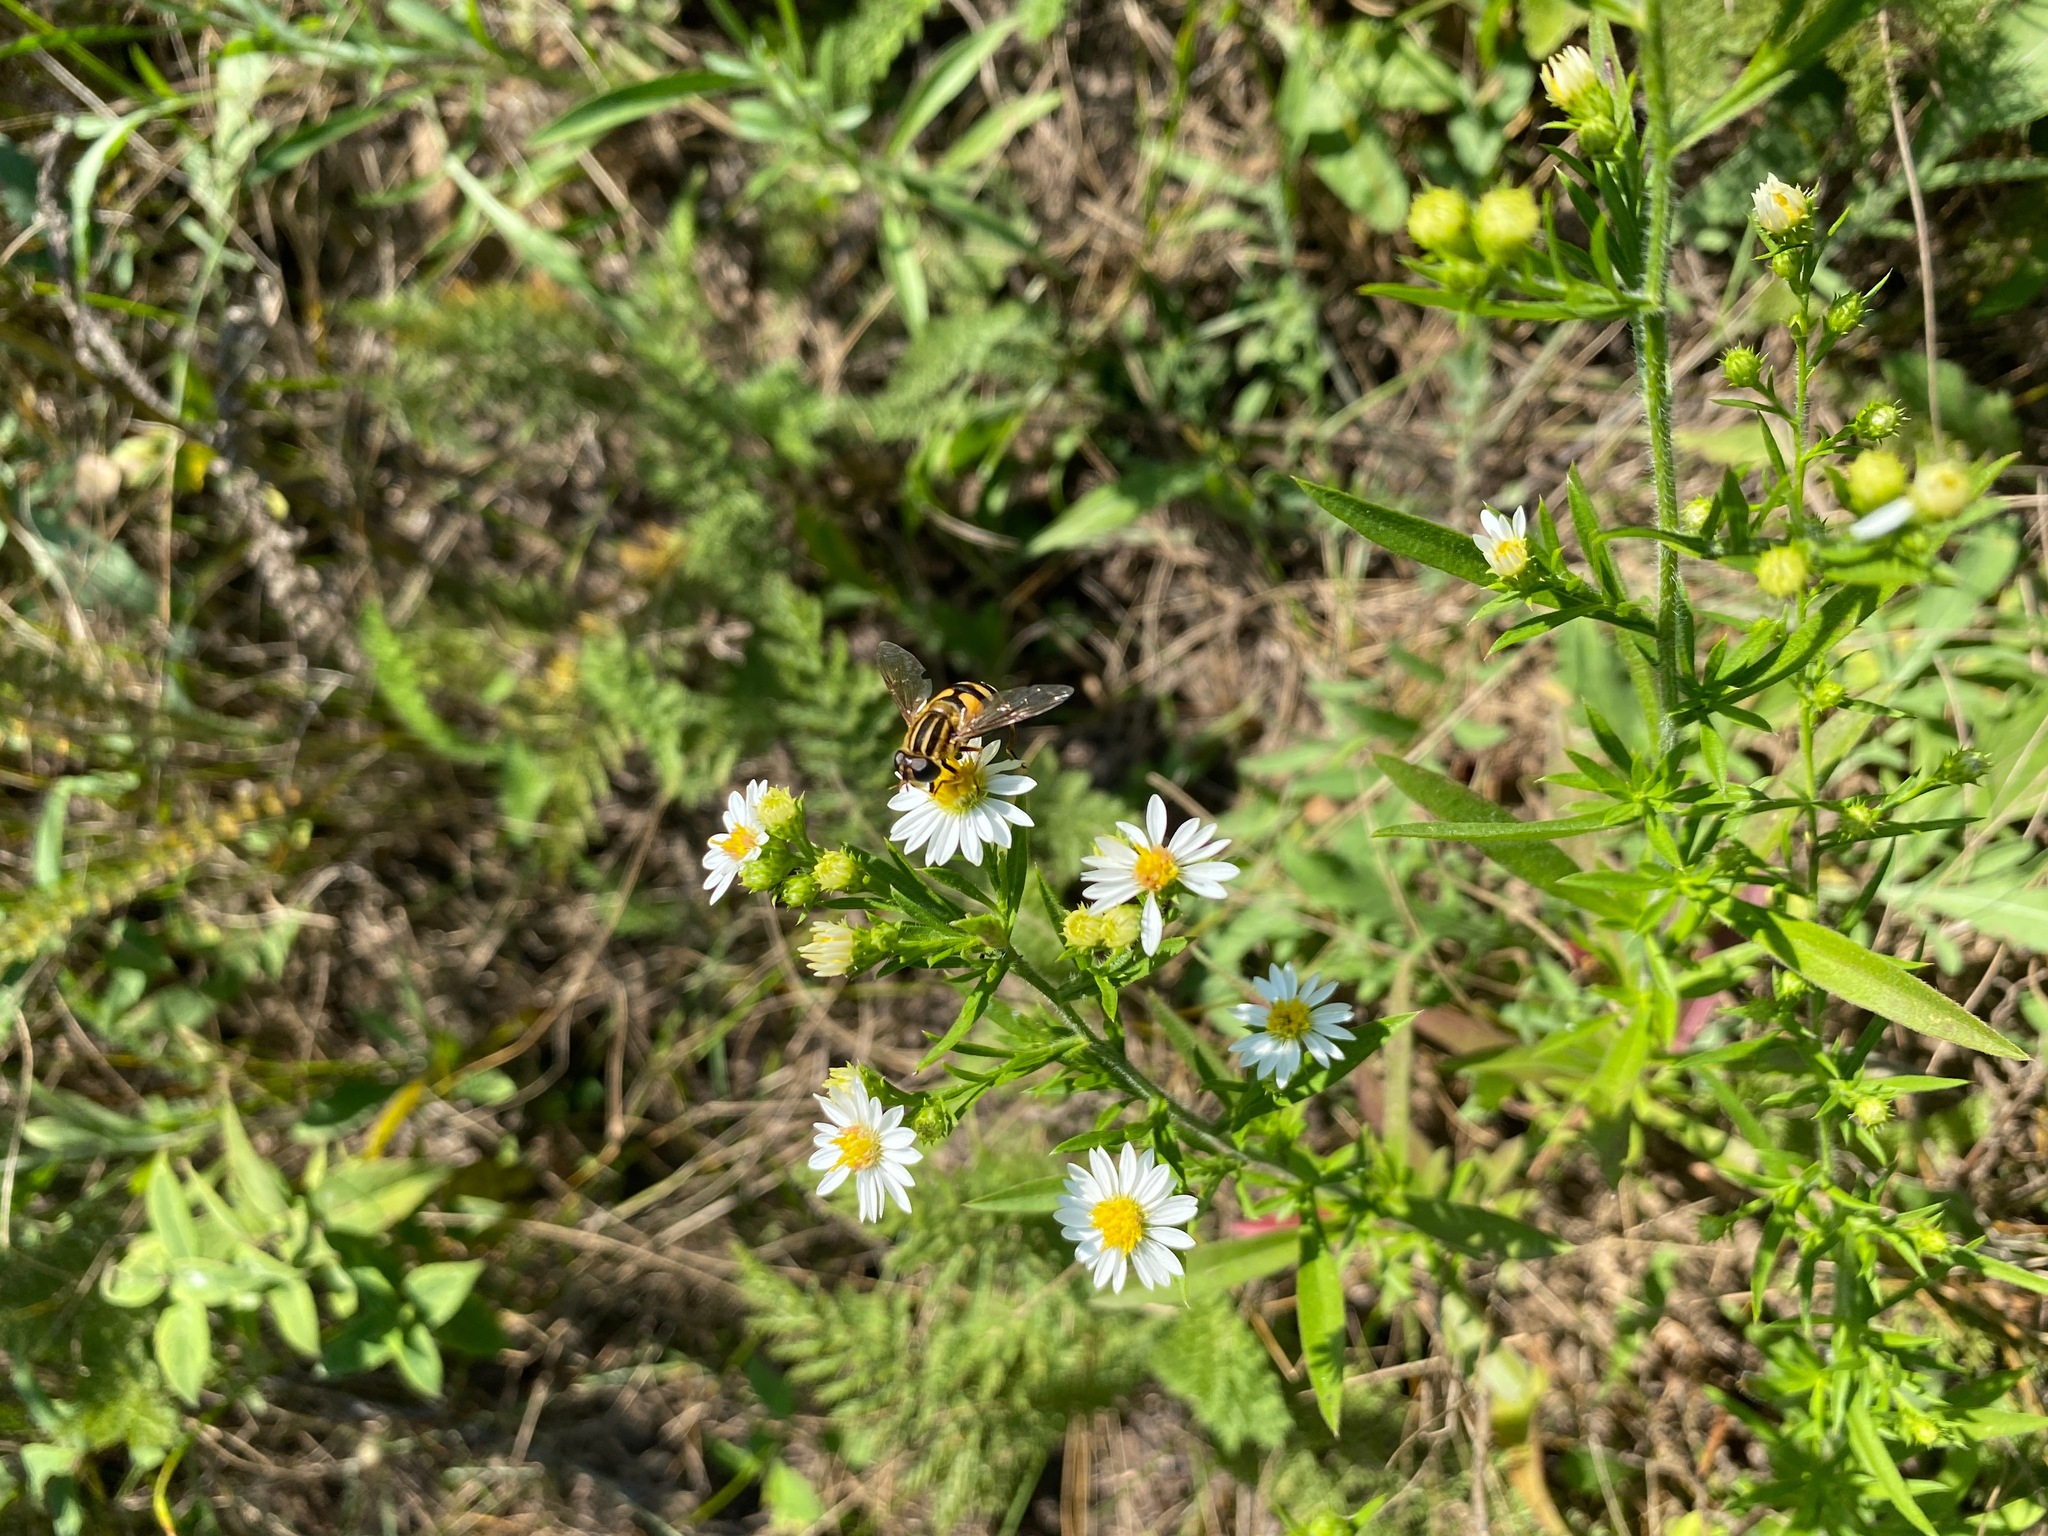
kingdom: Animalia
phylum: Arthropoda
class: Insecta
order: Diptera
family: Syrphidae
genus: Helophilus
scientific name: Helophilus fasciatus
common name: Narrow-headed marsh fly
